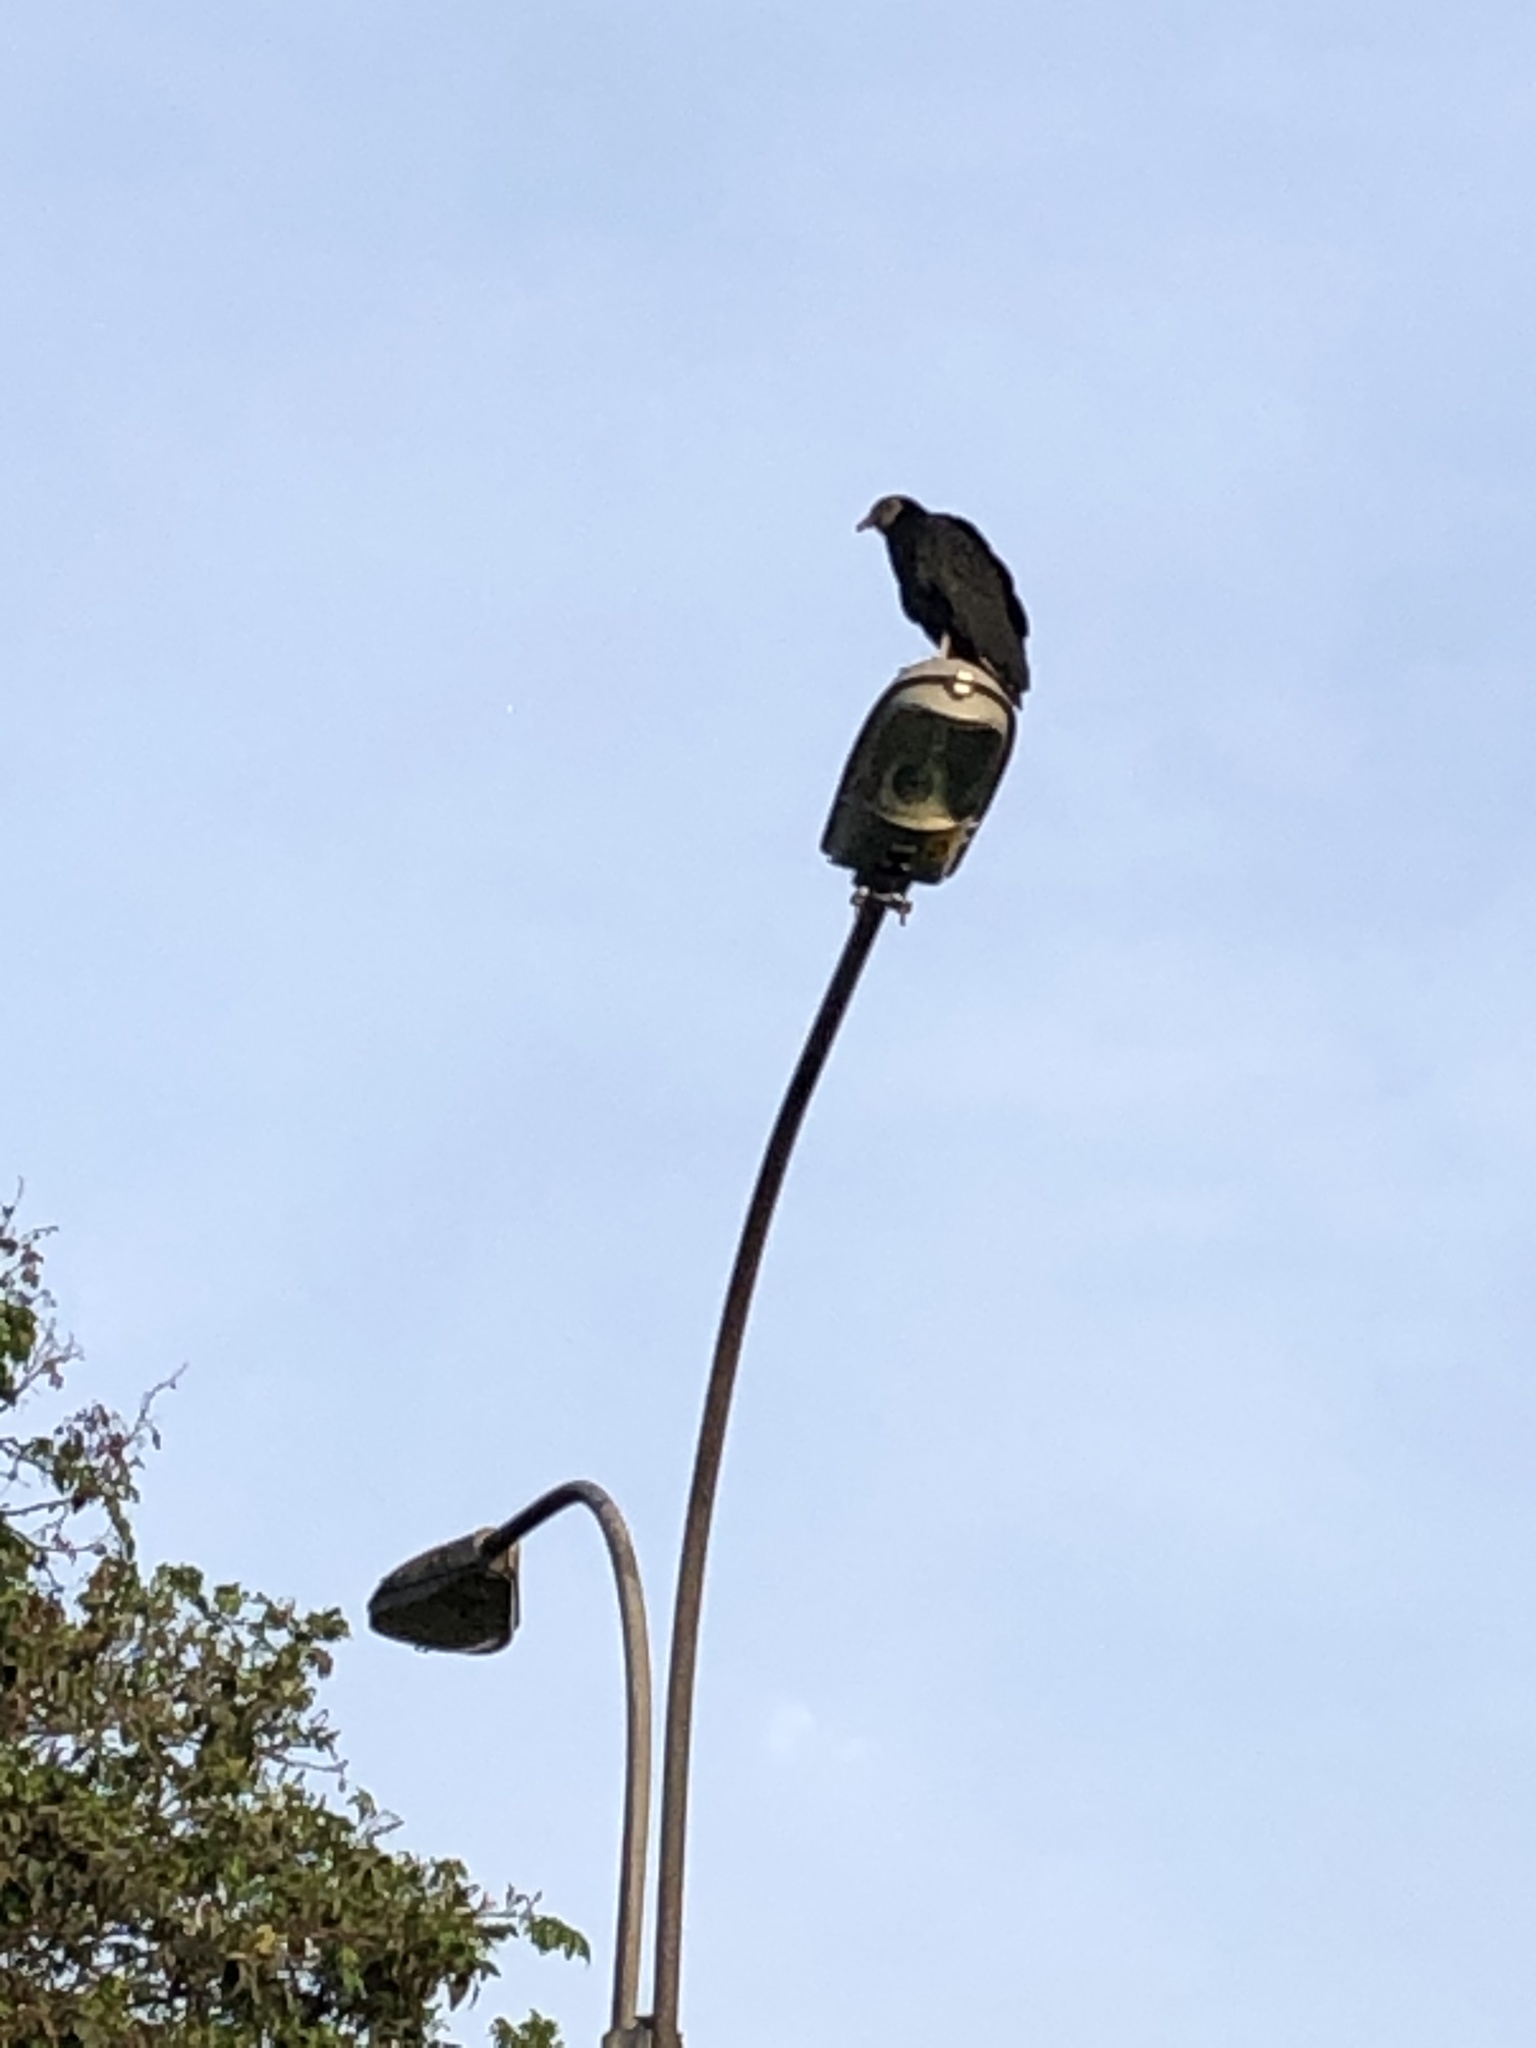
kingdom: Animalia
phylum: Chordata
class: Aves
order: Accipitriformes
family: Cathartidae
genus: Coragyps
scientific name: Coragyps atratus
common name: Black vulture
